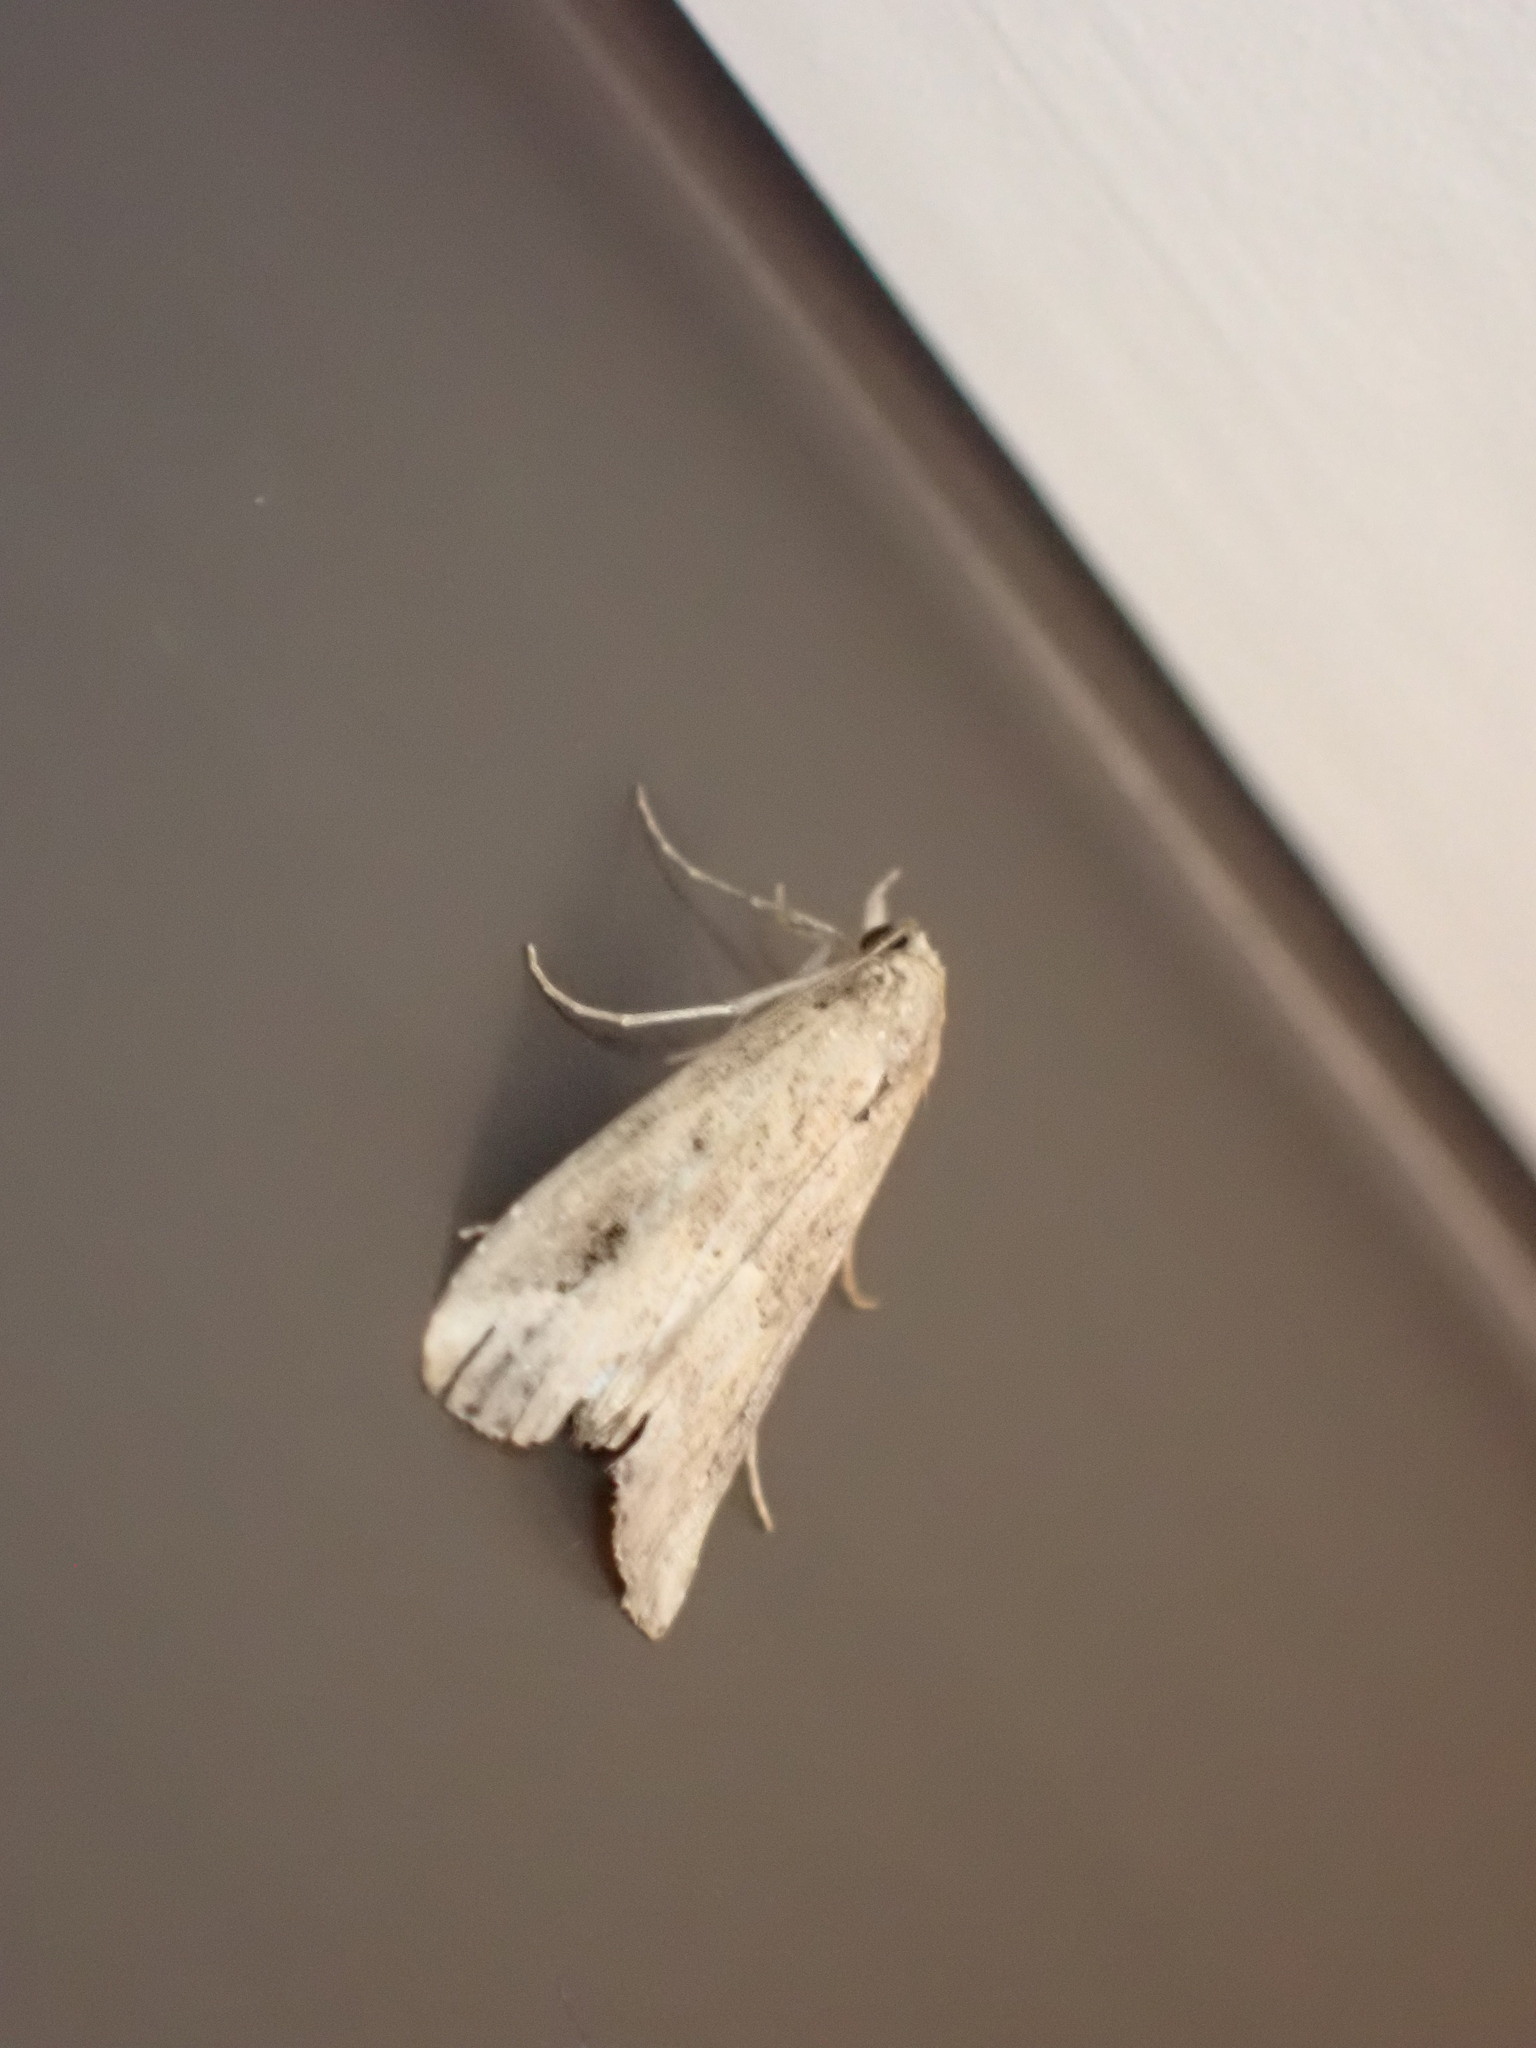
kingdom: Animalia
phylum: Arthropoda
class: Insecta
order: Lepidoptera
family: Erebidae
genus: Schrankia
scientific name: Schrankia costaestrigalis
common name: Pinion-streaked snout
